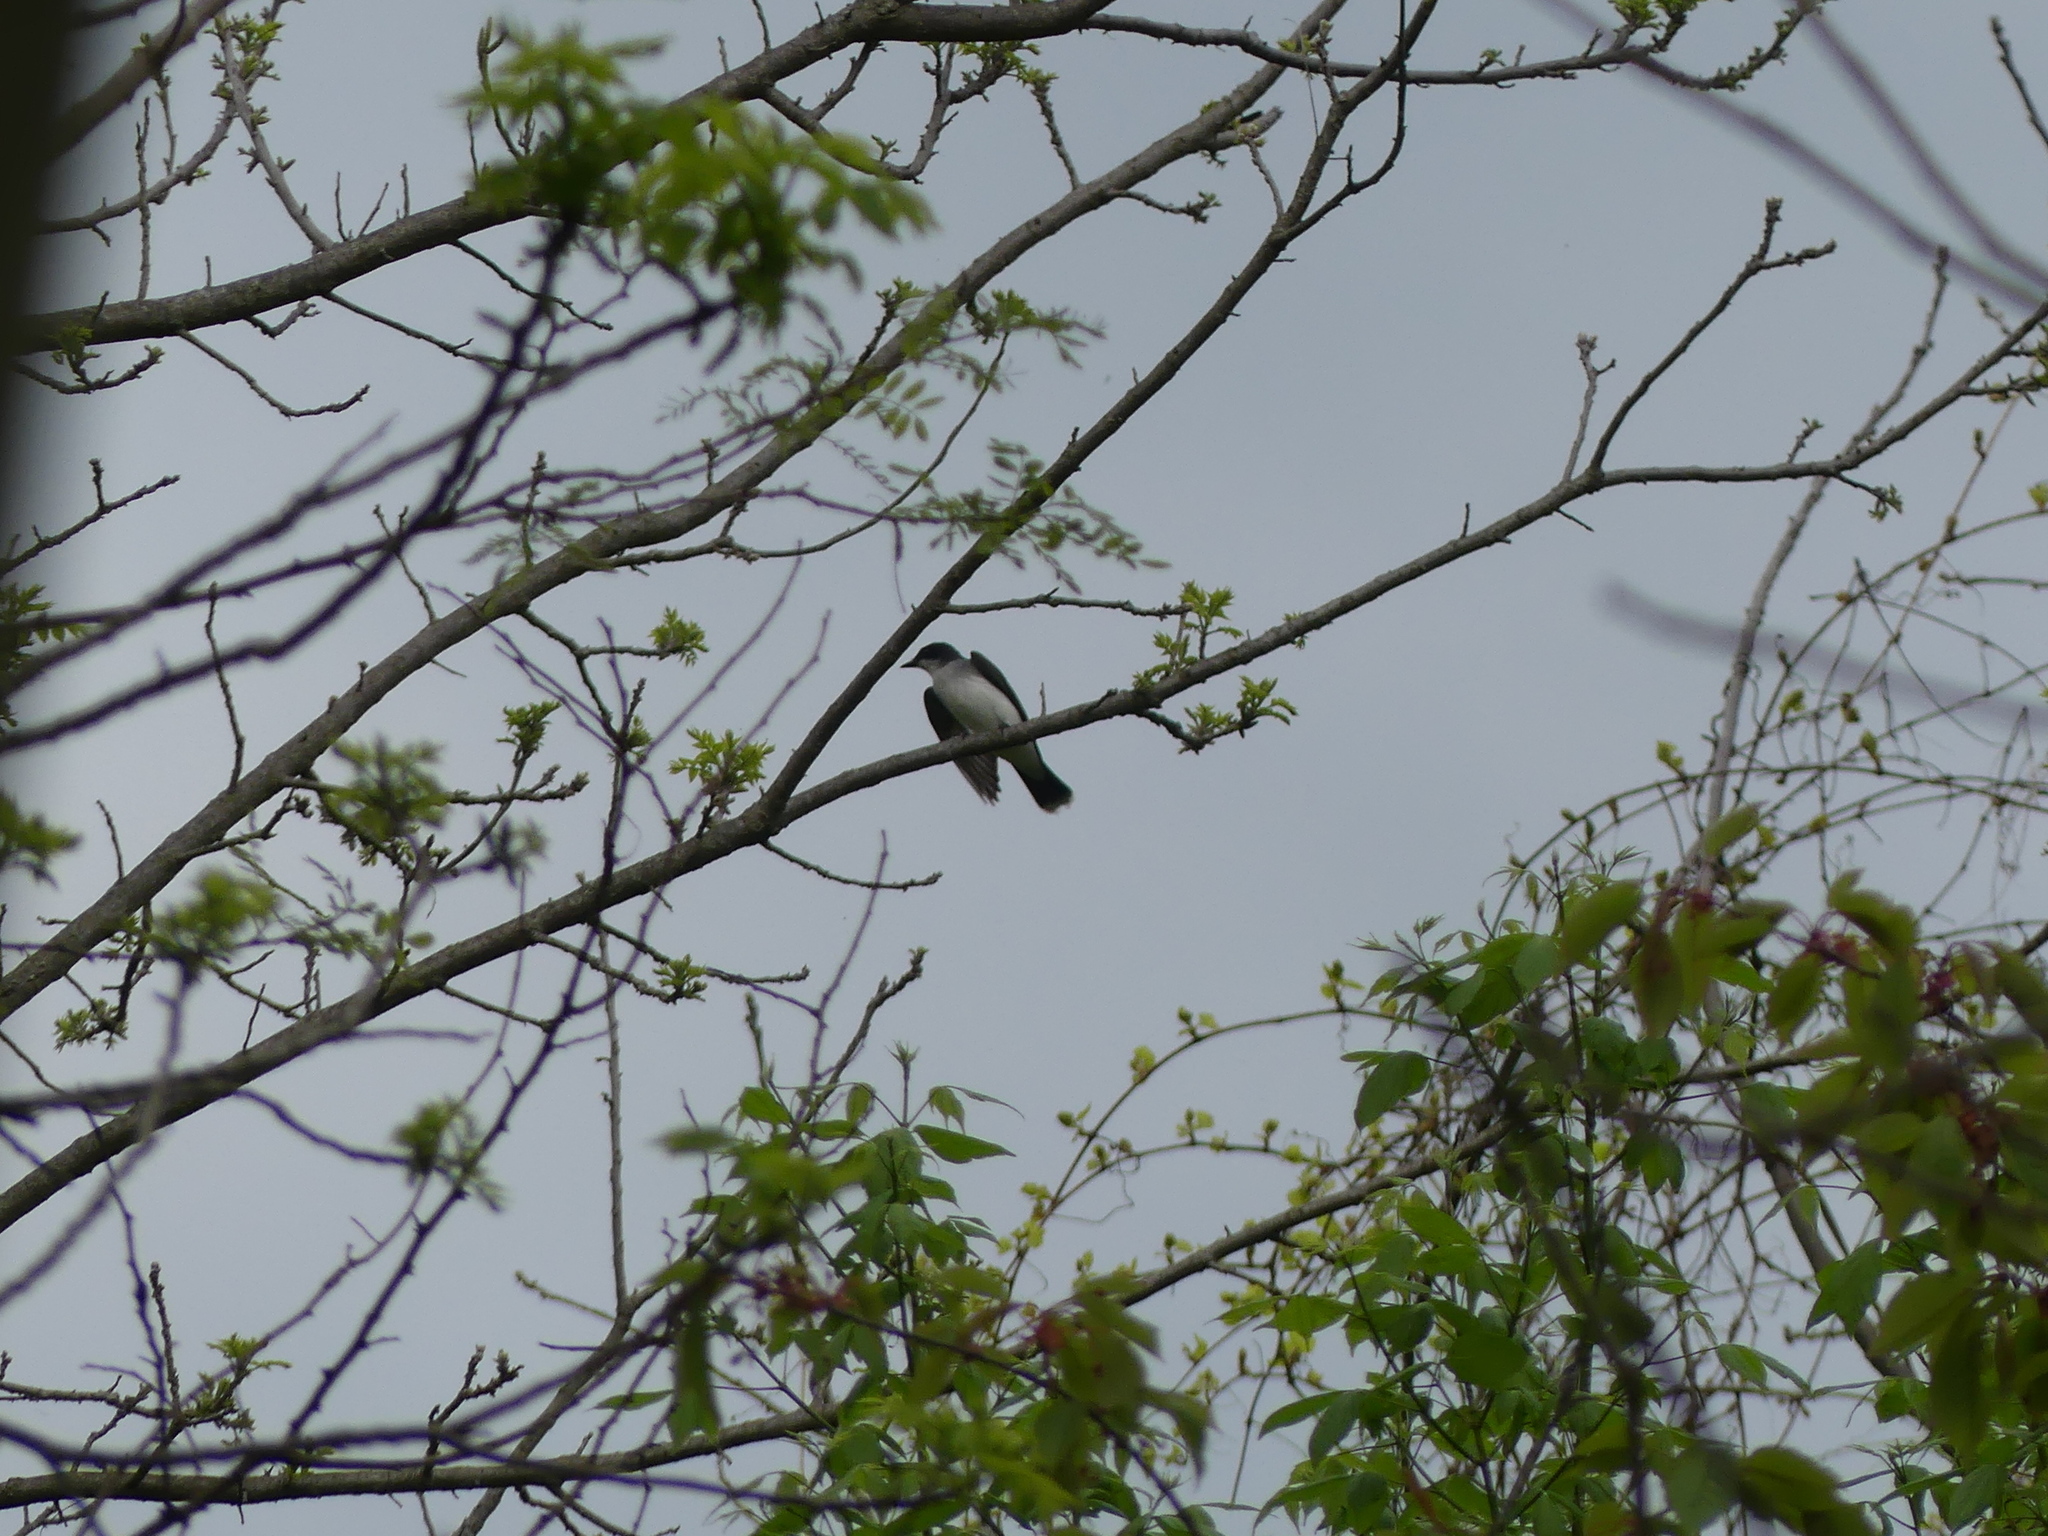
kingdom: Animalia
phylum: Chordata
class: Aves
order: Passeriformes
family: Tyrannidae
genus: Tyrannus
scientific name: Tyrannus tyrannus
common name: Eastern kingbird
